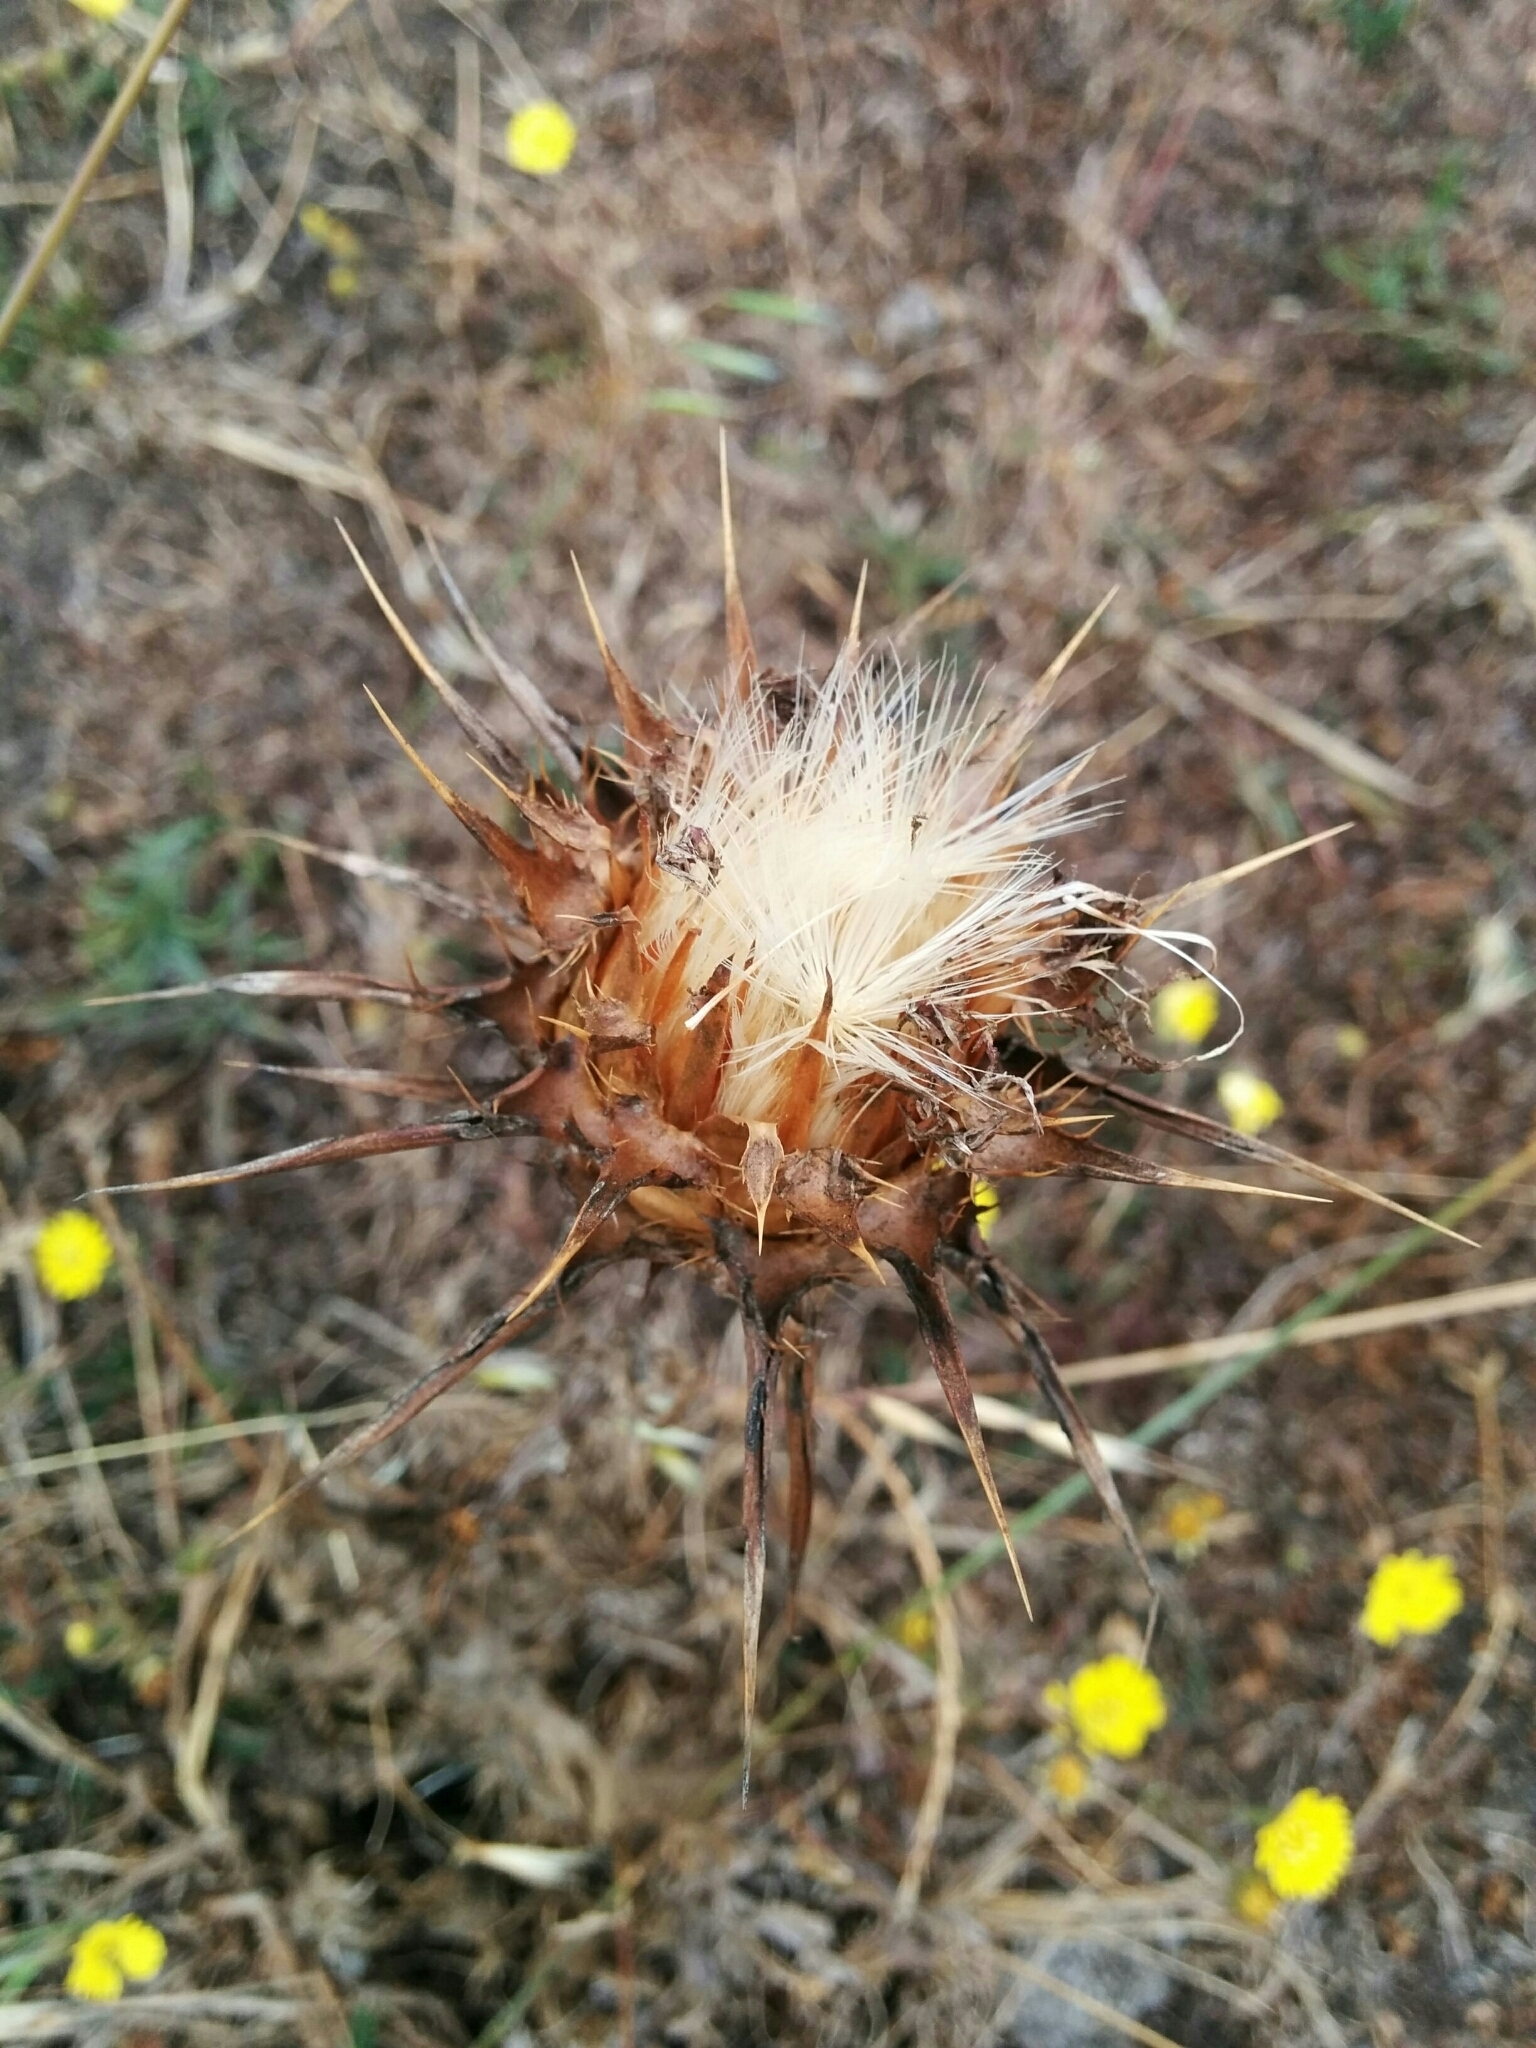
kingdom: Plantae
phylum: Tracheophyta
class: Magnoliopsida
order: Asterales
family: Asteraceae
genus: Silybum
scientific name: Silybum marianum
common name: Milk thistle
